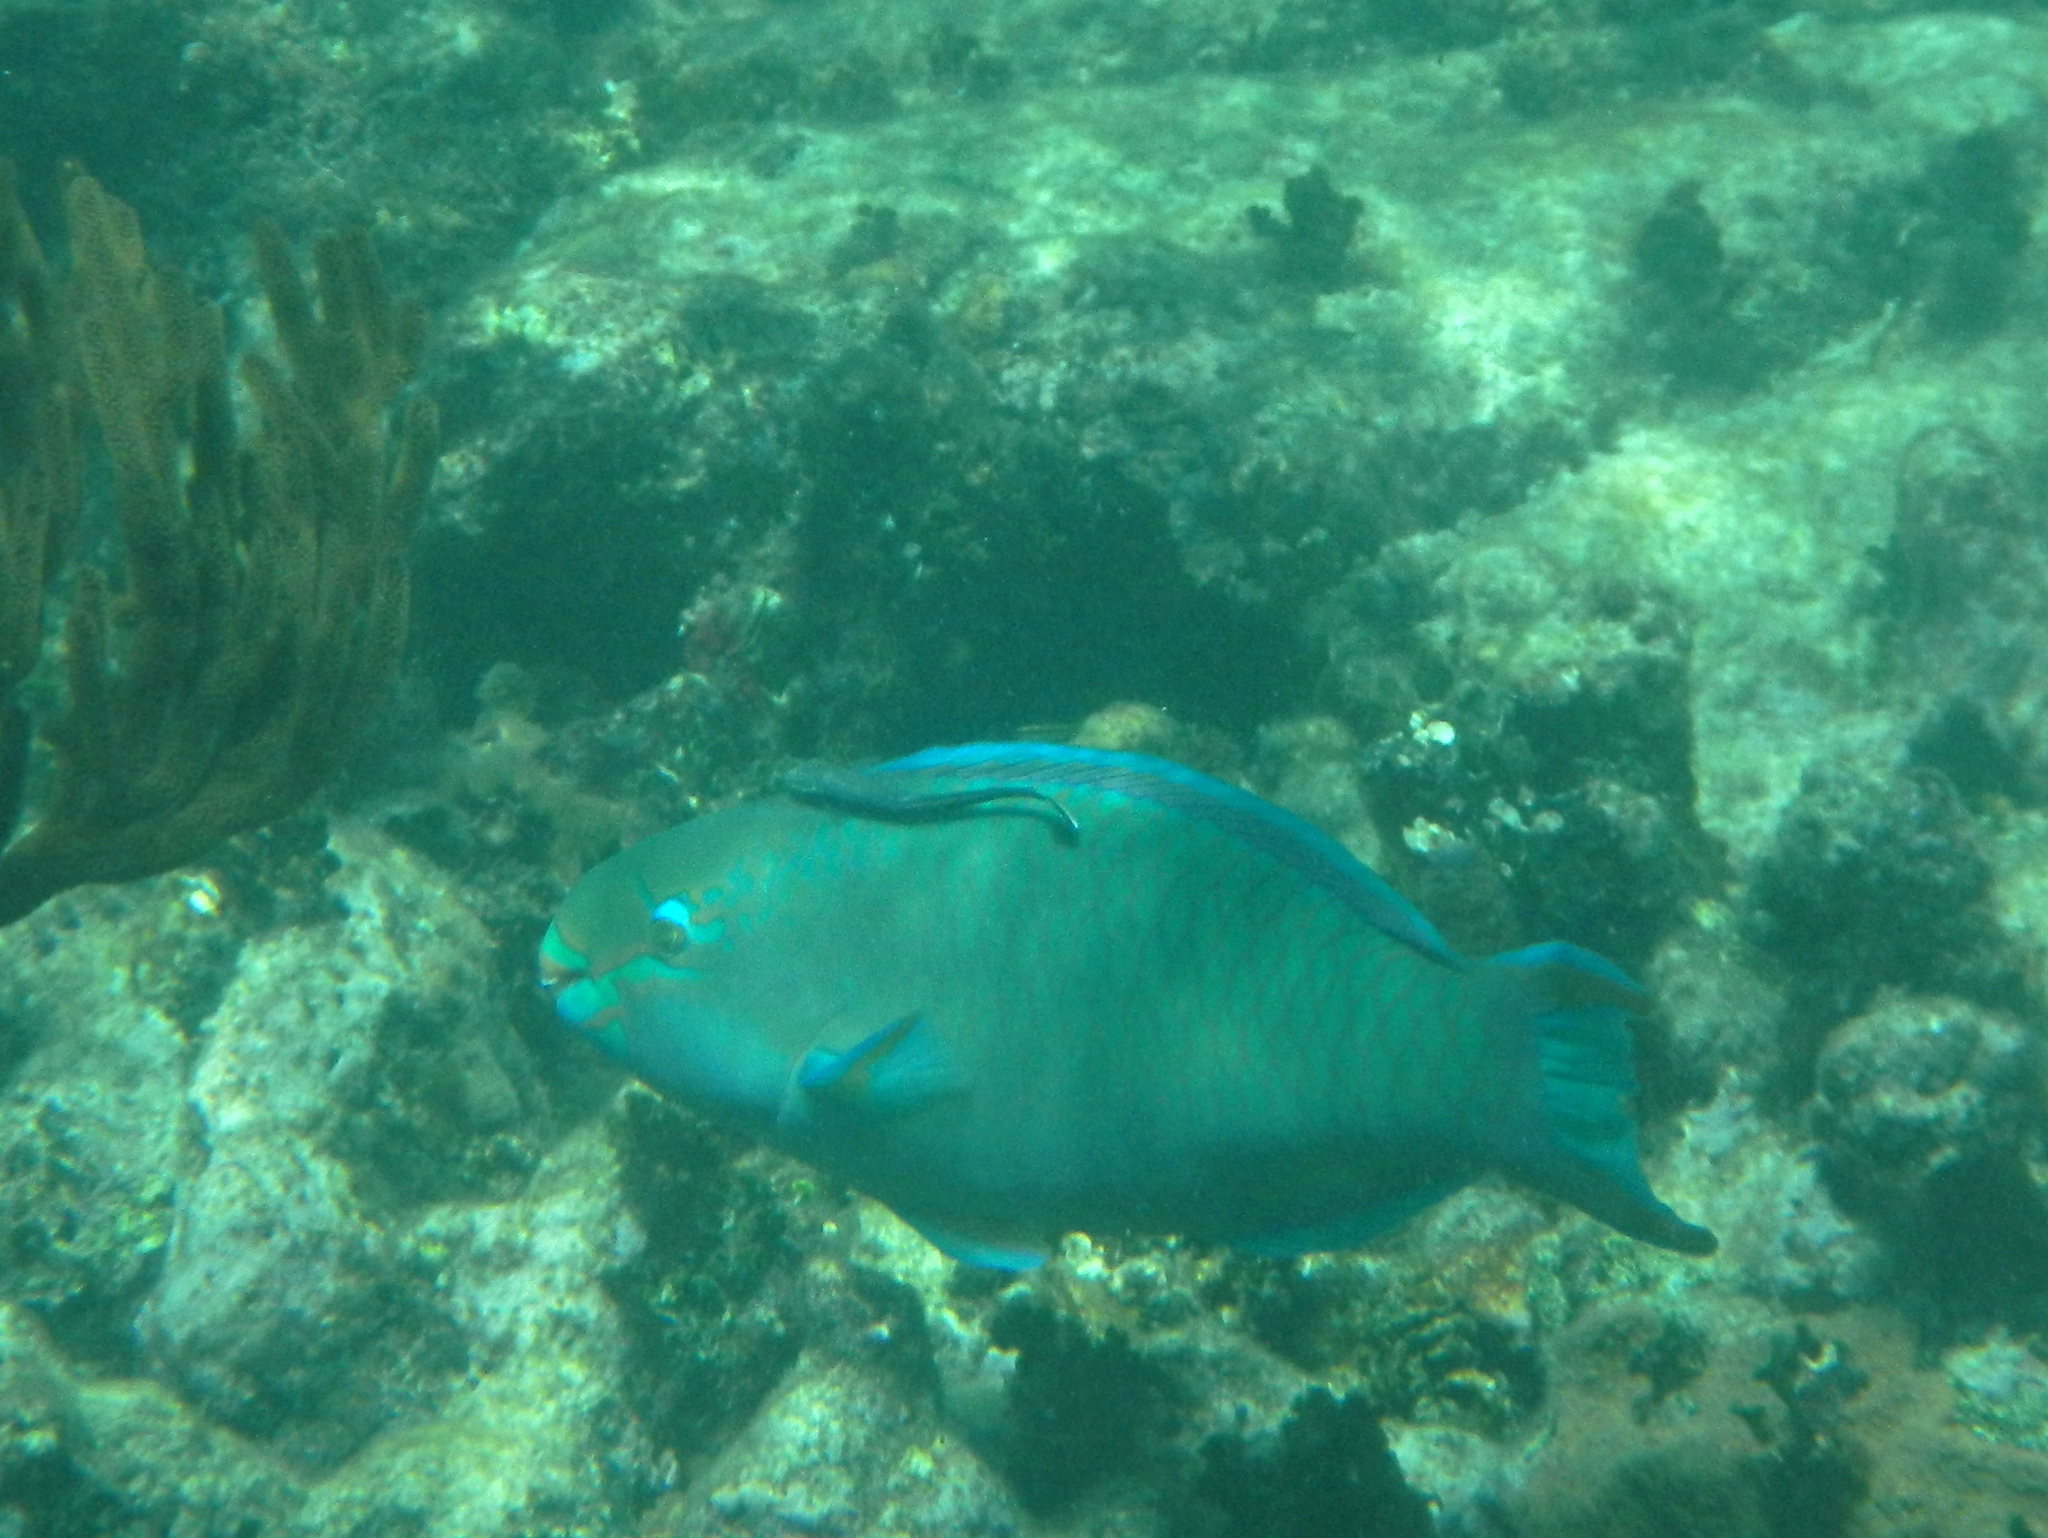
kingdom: Animalia
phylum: Chordata
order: Perciformes
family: Scaridae
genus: Scarus
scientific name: Scarus vetula
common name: Queen parrotfish
